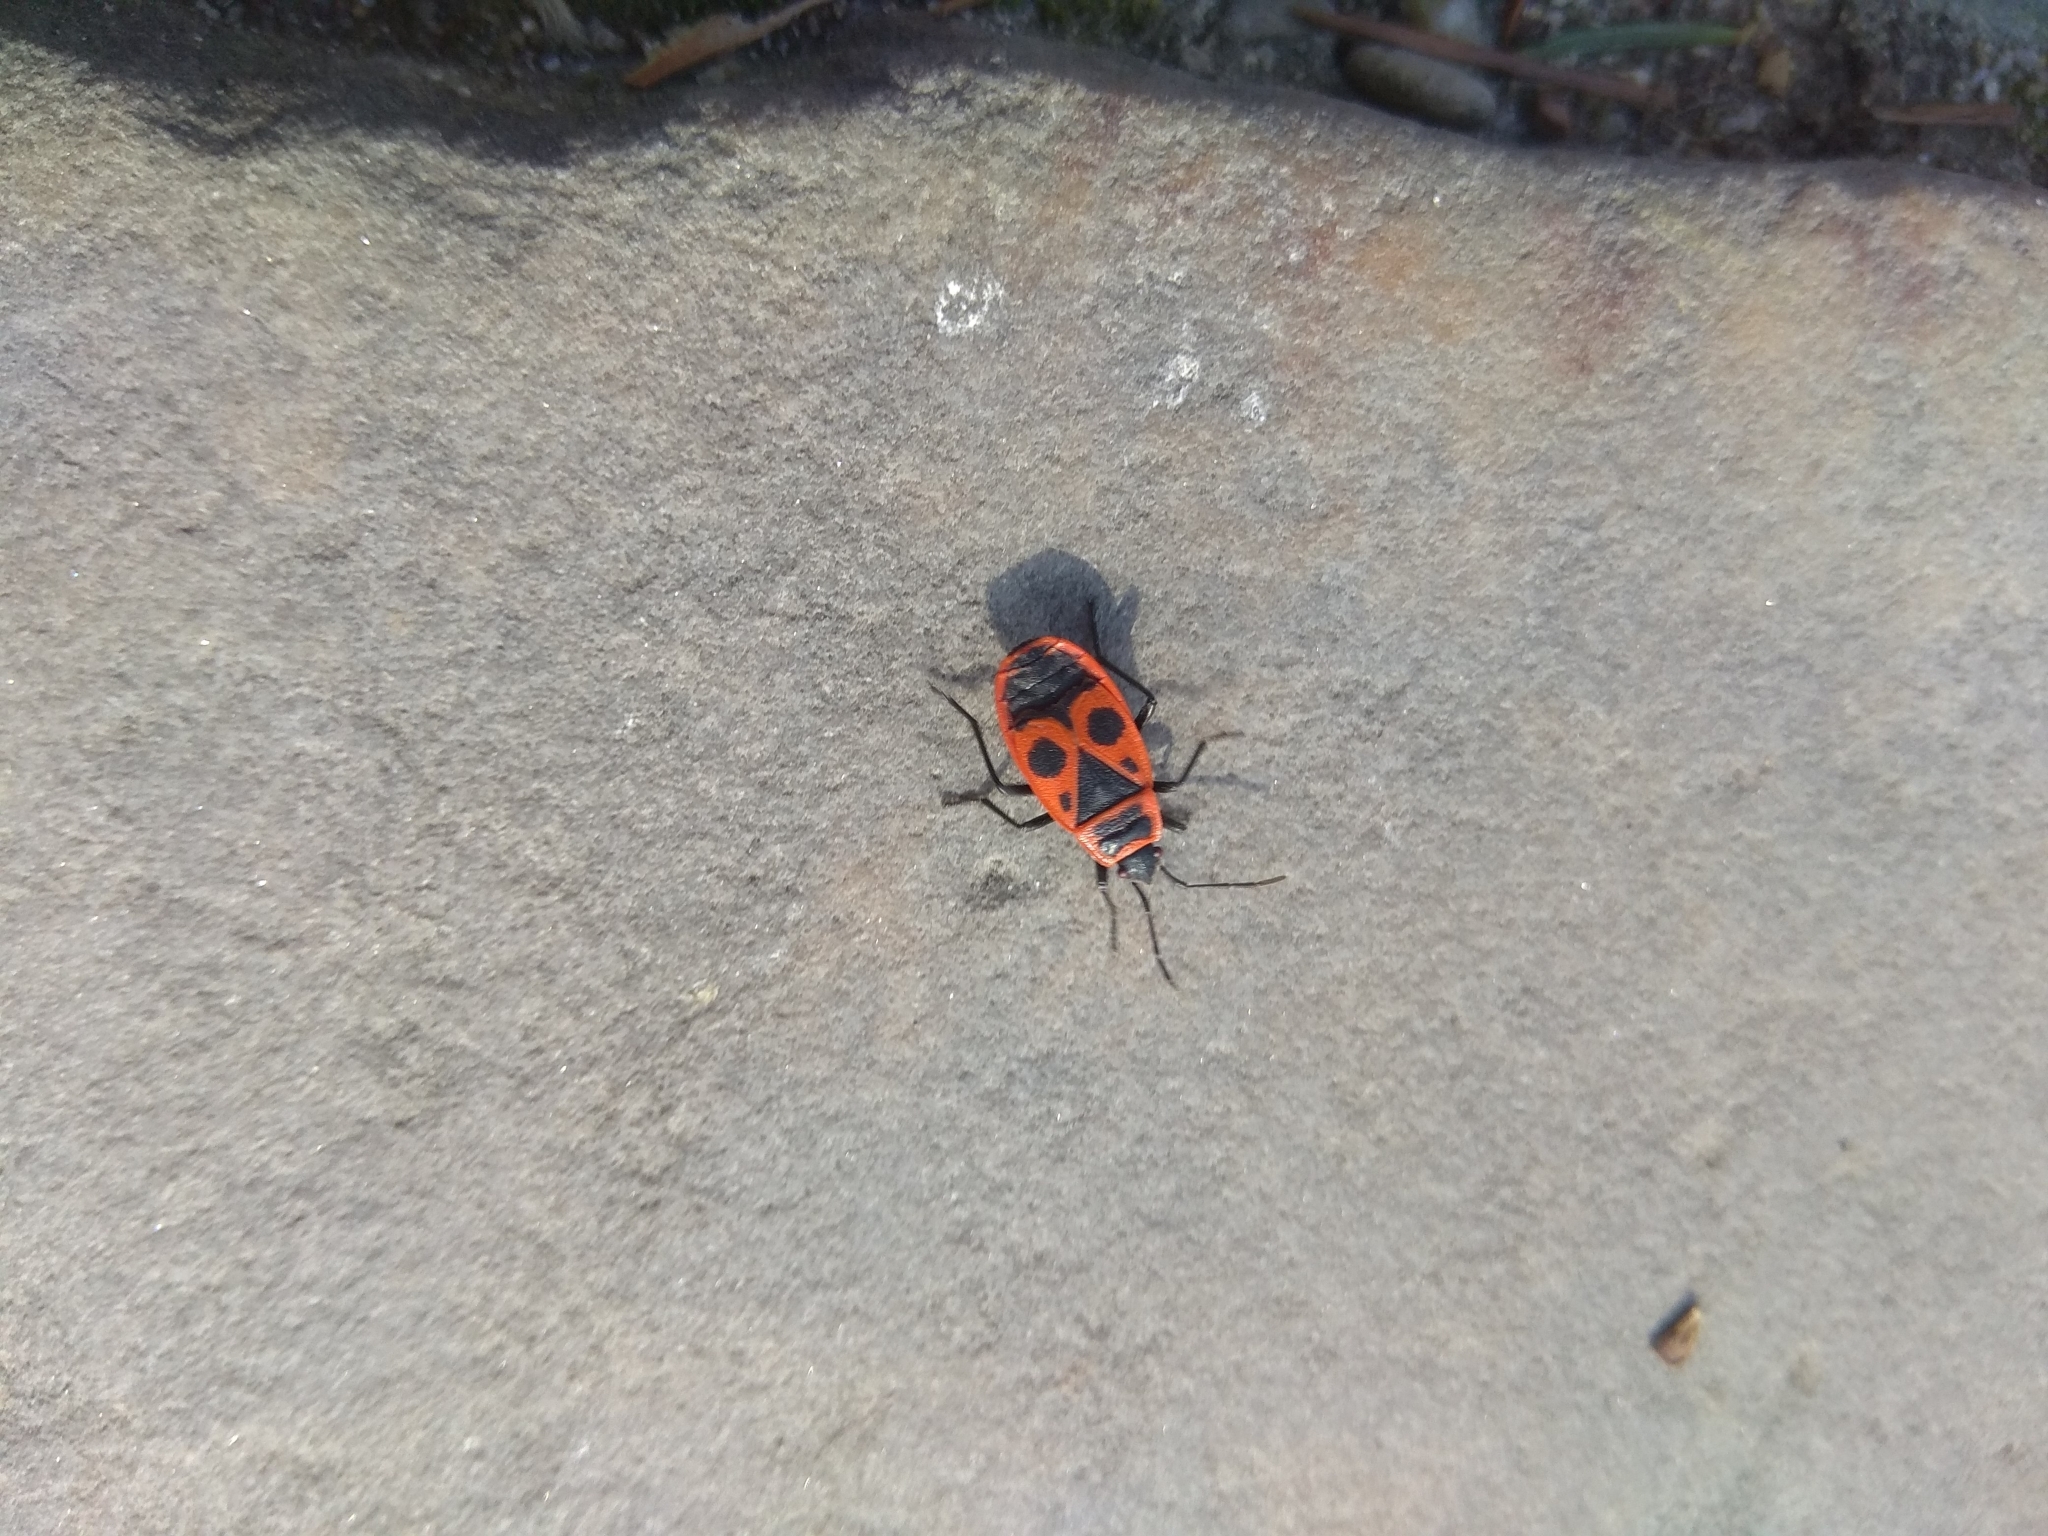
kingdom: Animalia
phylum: Arthropoda
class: Insecta
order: Hemiptera
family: Pyrrhocoridae
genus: Pyrrhocoris
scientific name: Pyrrhocoris apterus
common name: Firebug
